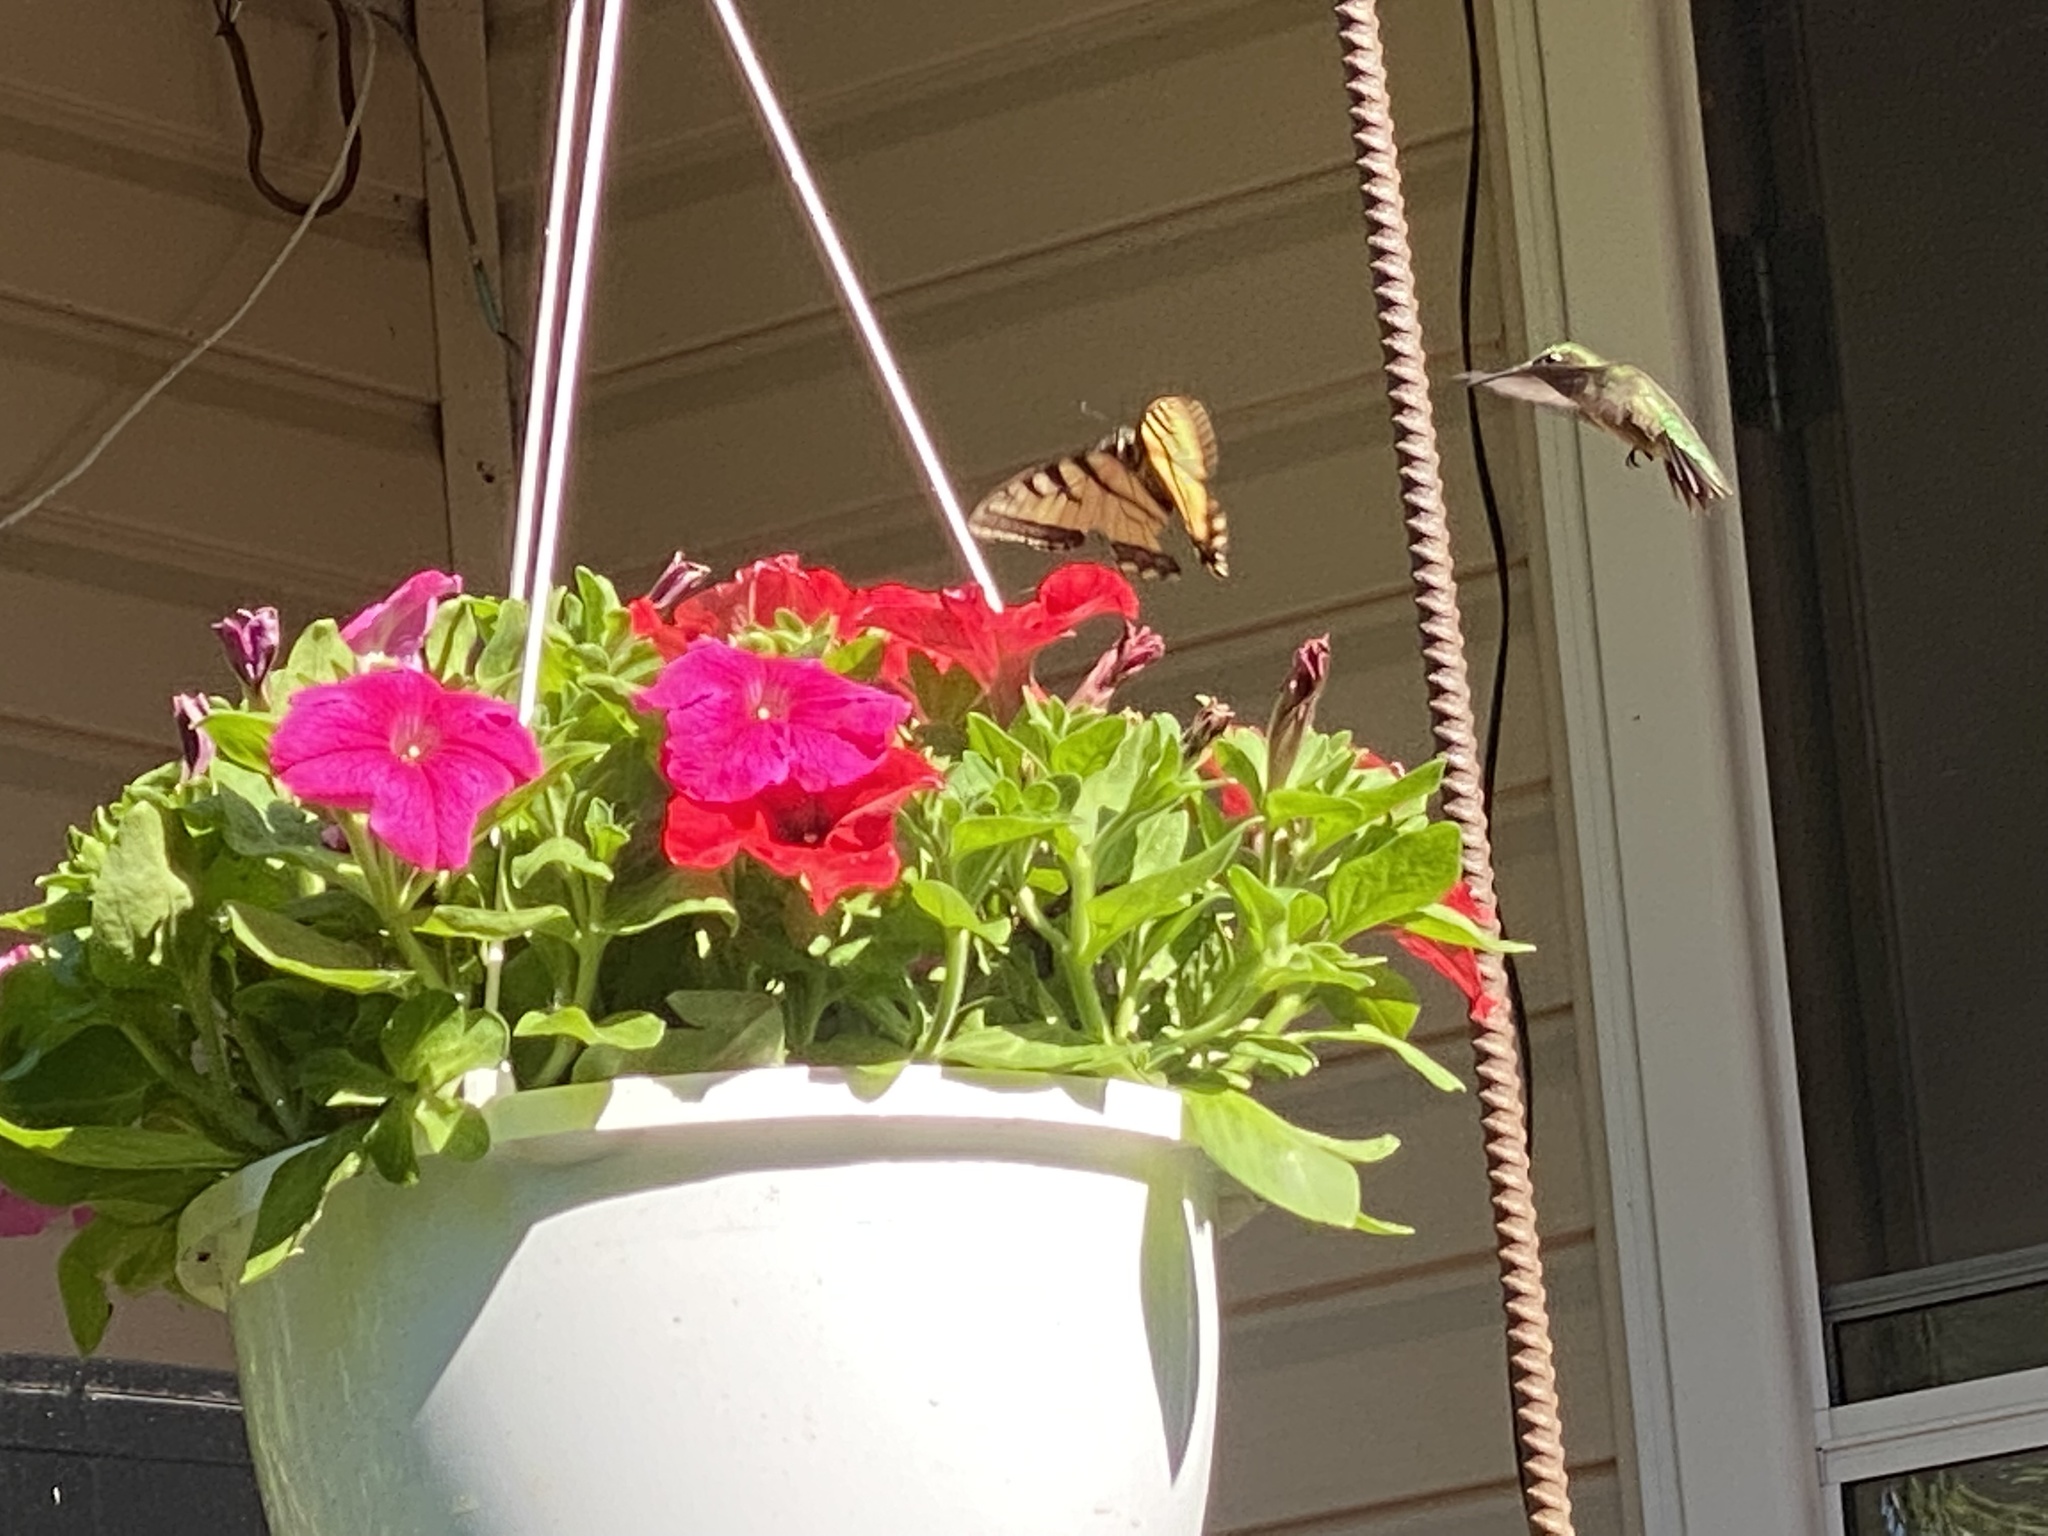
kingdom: Animalia
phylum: Chordata
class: Aves
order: Apodiformes
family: Trochilidae
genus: Archilochus
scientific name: Archilochus colubris
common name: Ruby-throated hummingbird
